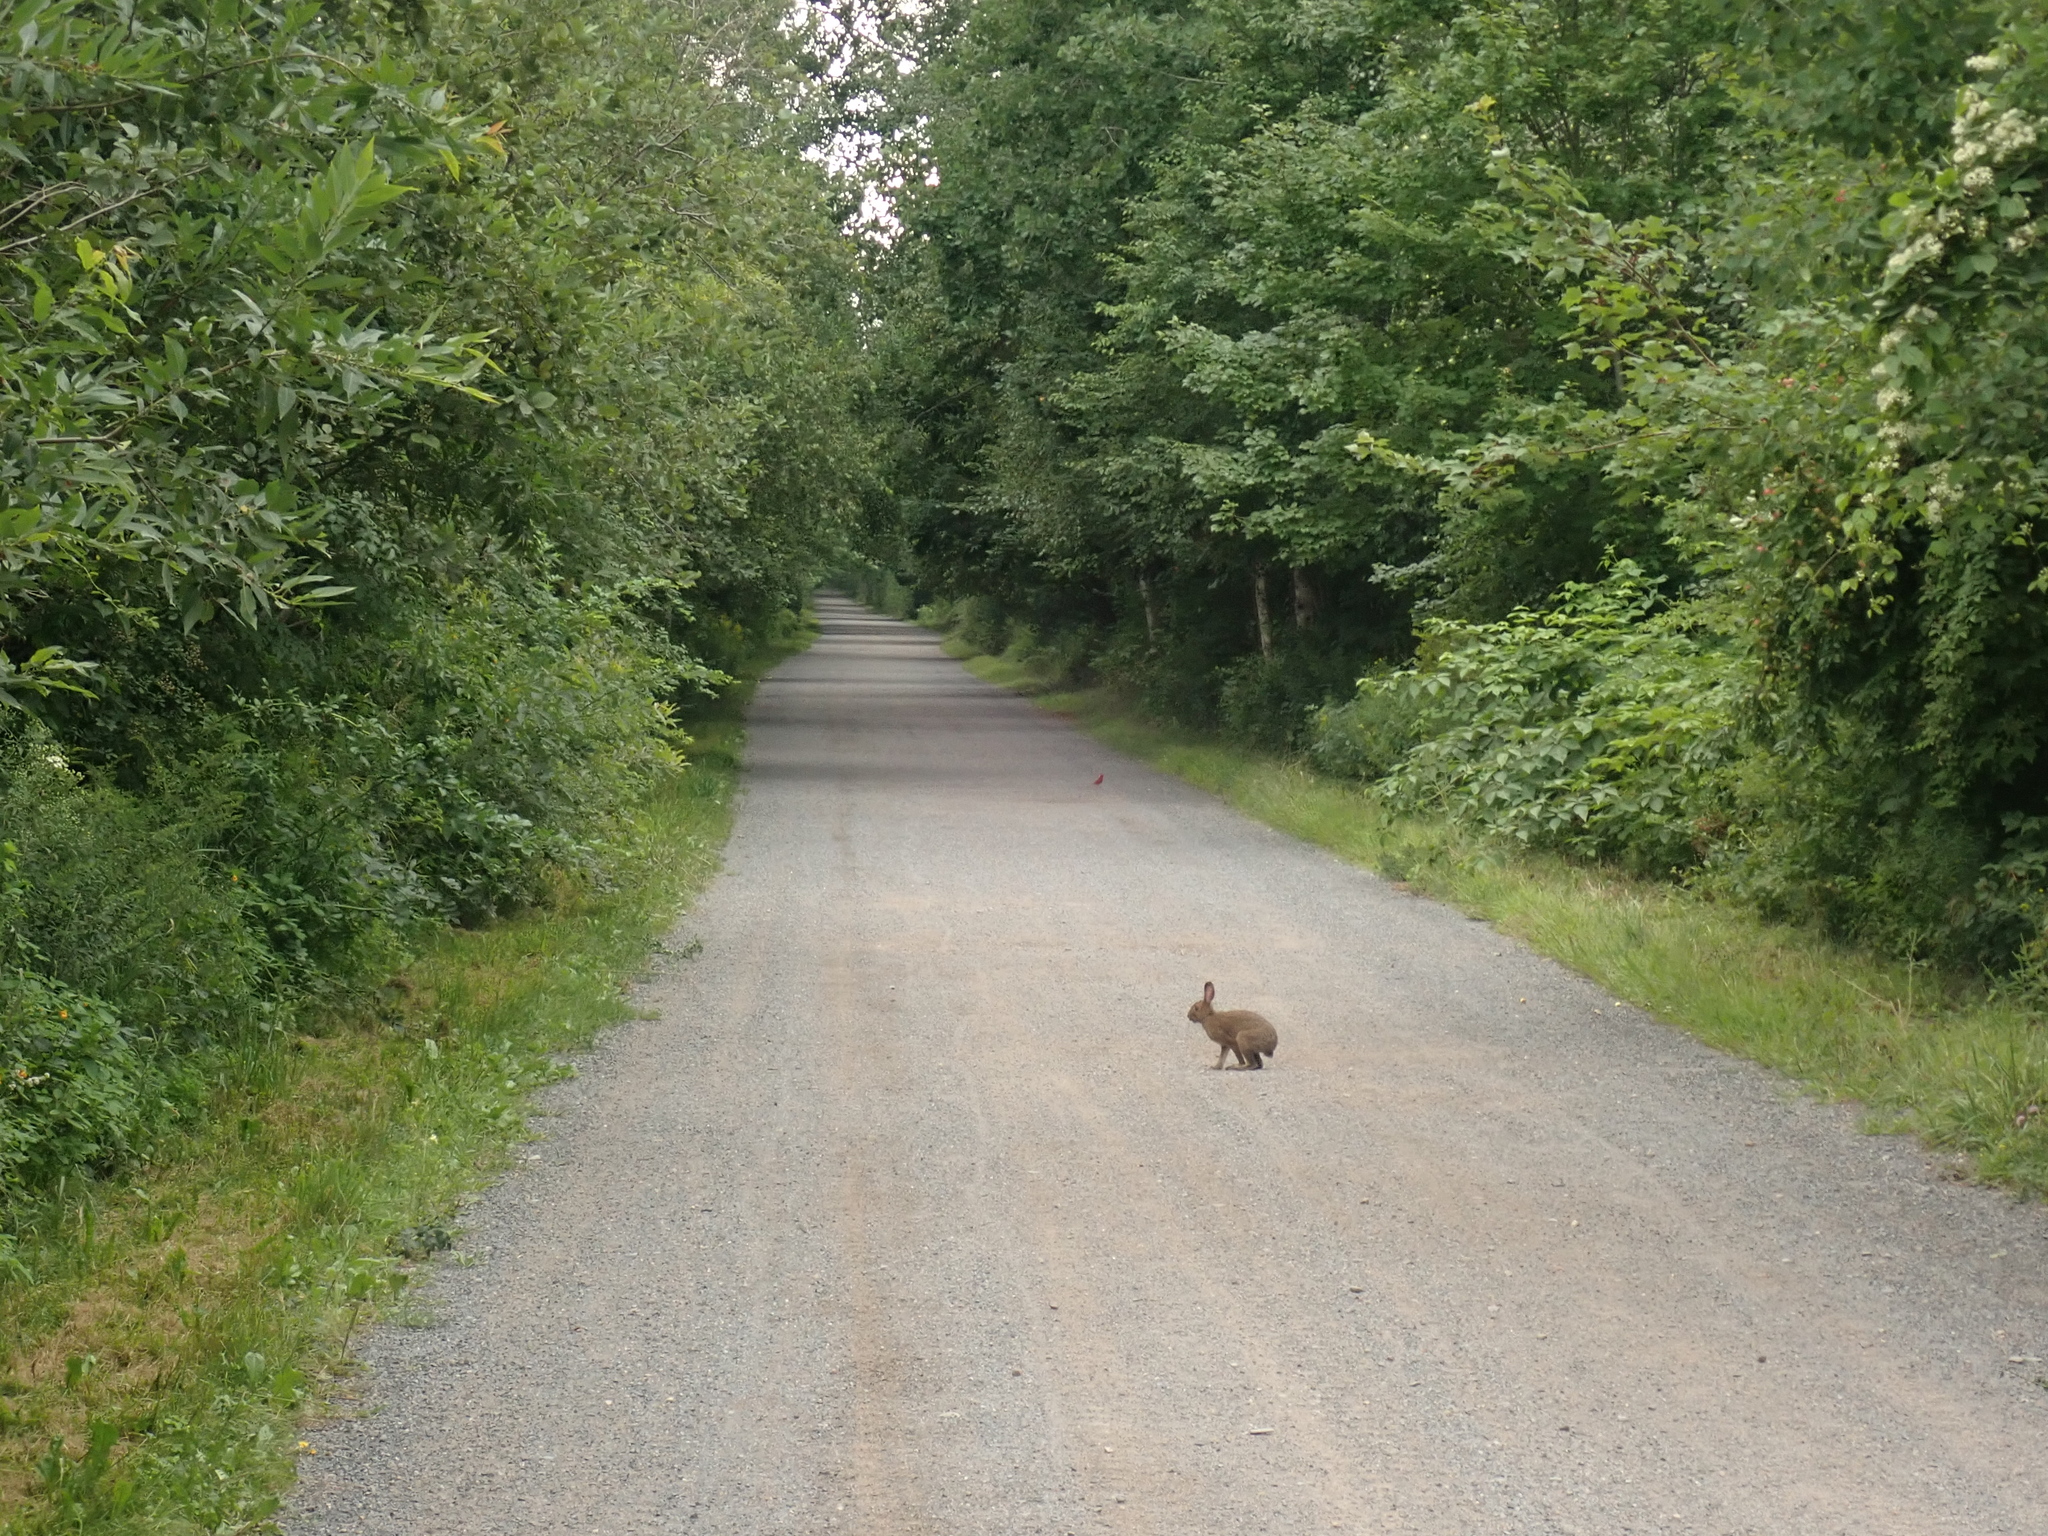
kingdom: Animalia
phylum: Chordata
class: Mammalia
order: Lagomorpha
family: Leporidae
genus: Lepus
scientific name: Lepus americanus
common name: Snowshoe hare
